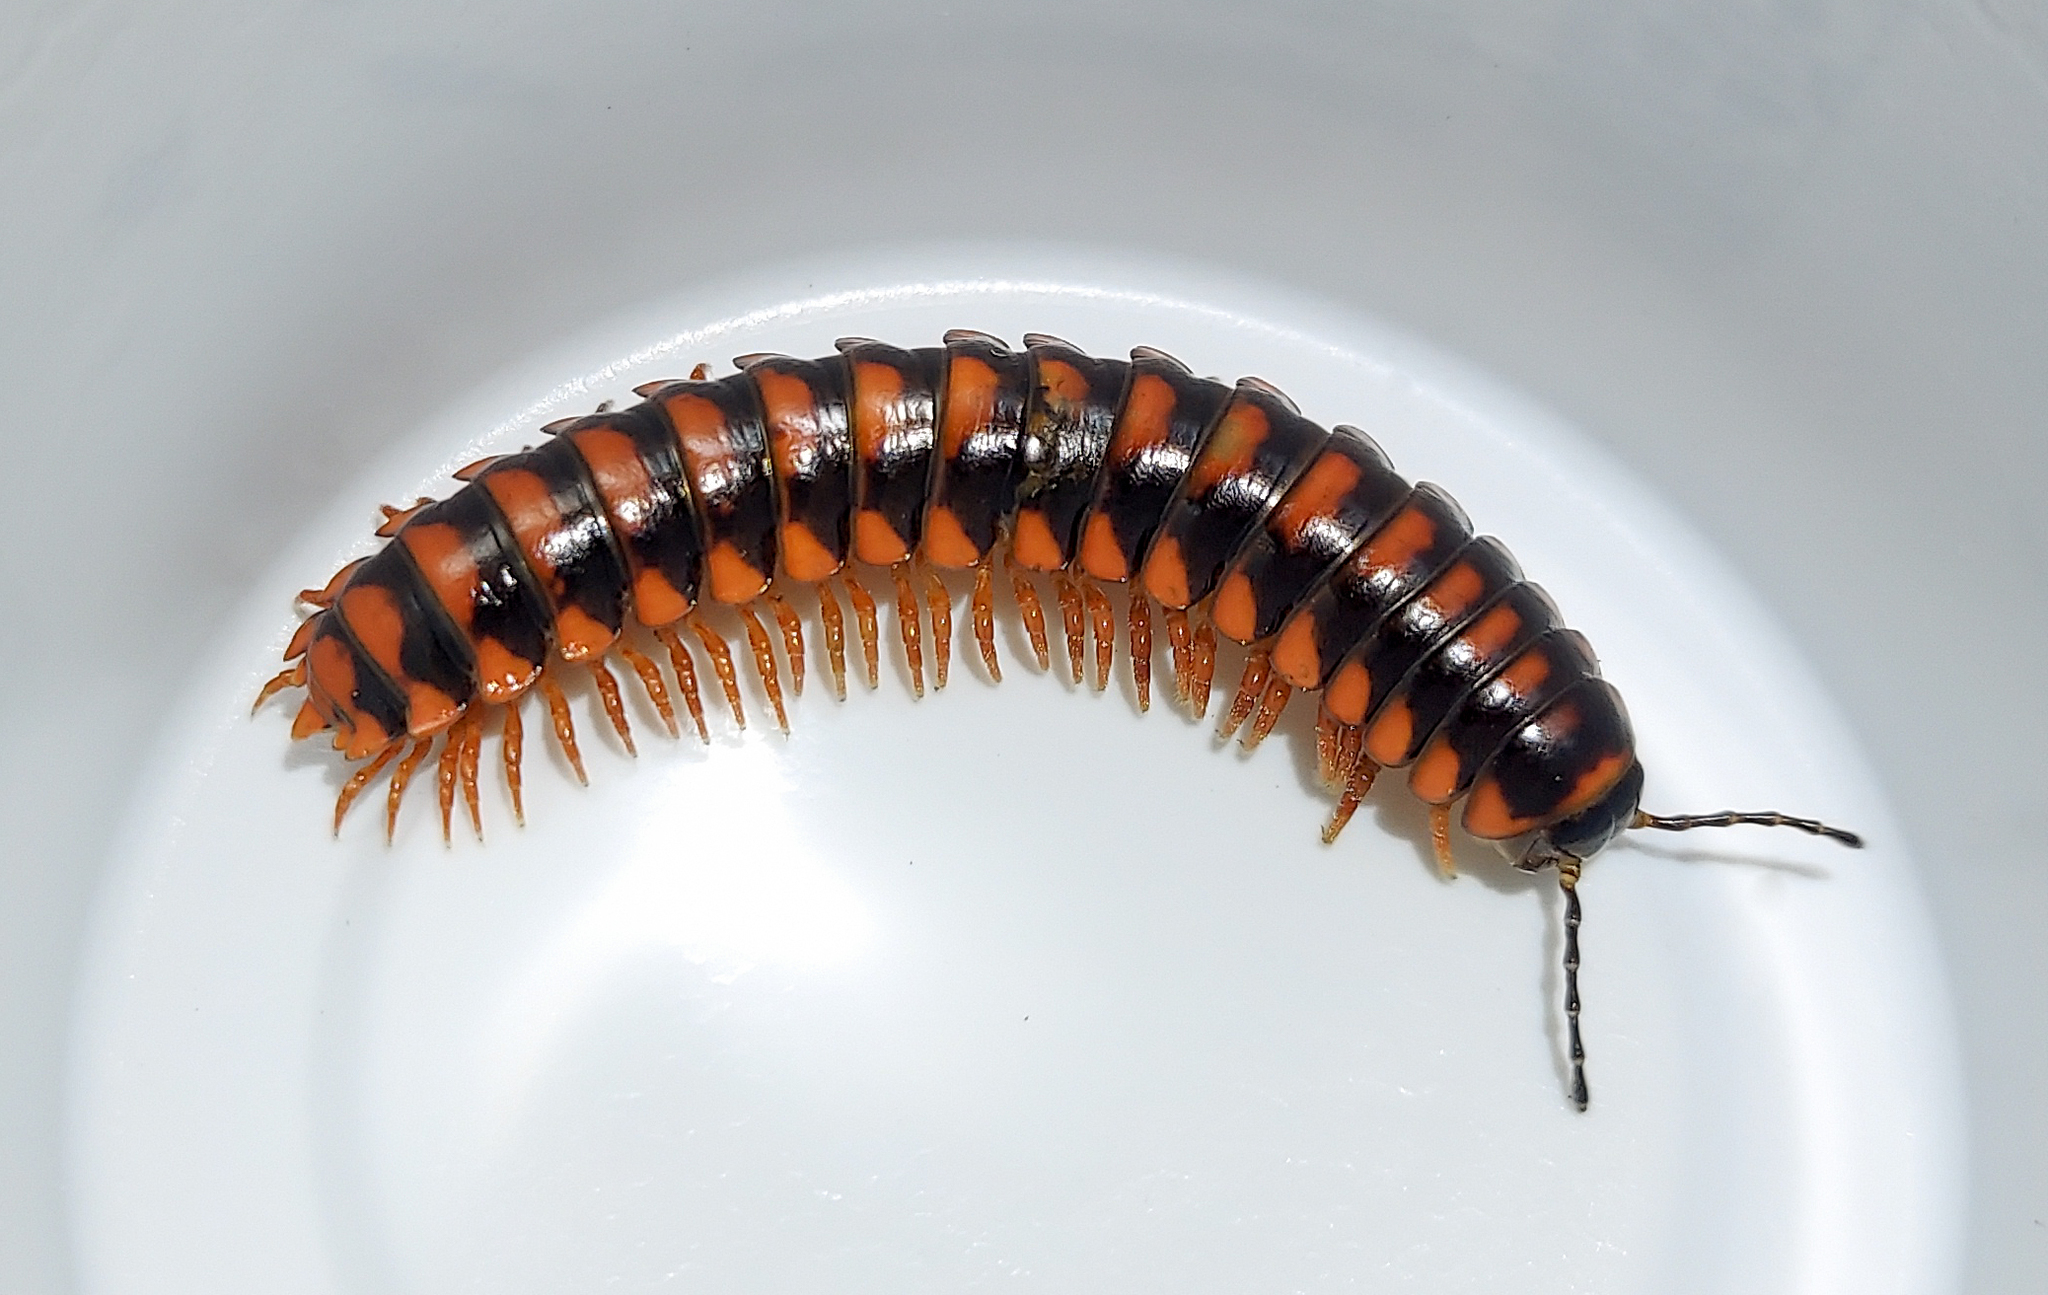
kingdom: Animalia
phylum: Arthropoda
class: Diplopoda
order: Polydesmida
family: Xystodesmidae
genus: Brachoria
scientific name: Brachoria insolita
